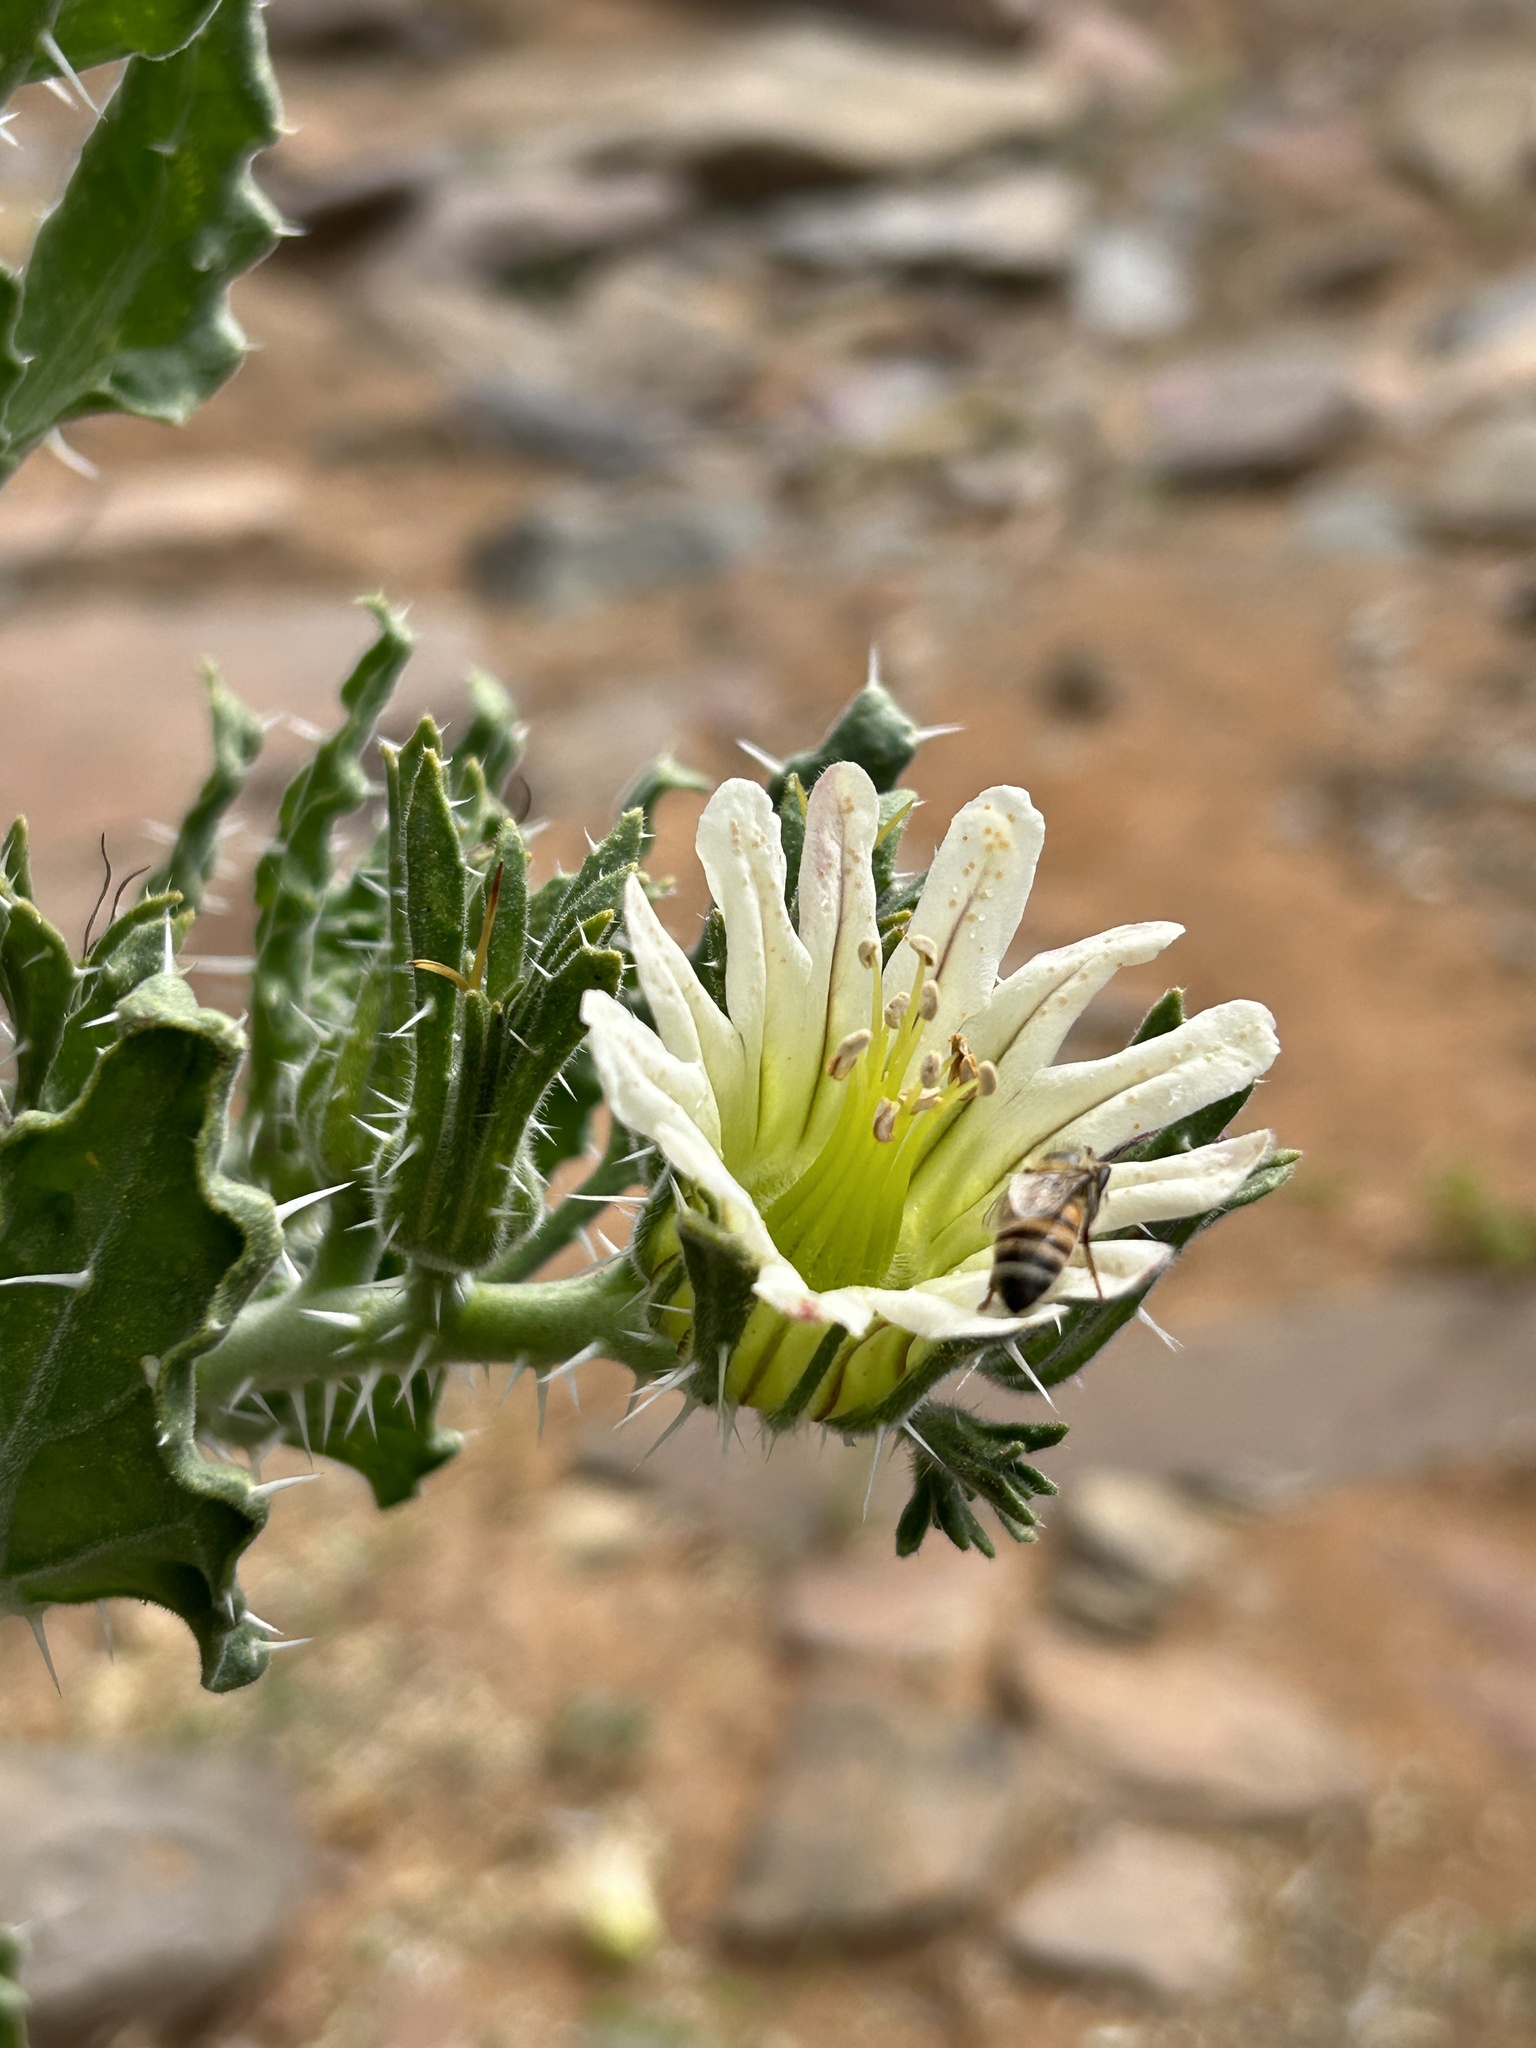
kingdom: Plantae
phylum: Tracheophyta
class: Magnoliopsida
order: Boraginales
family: Boraginaceae
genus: Codon
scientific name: Codon royenii
